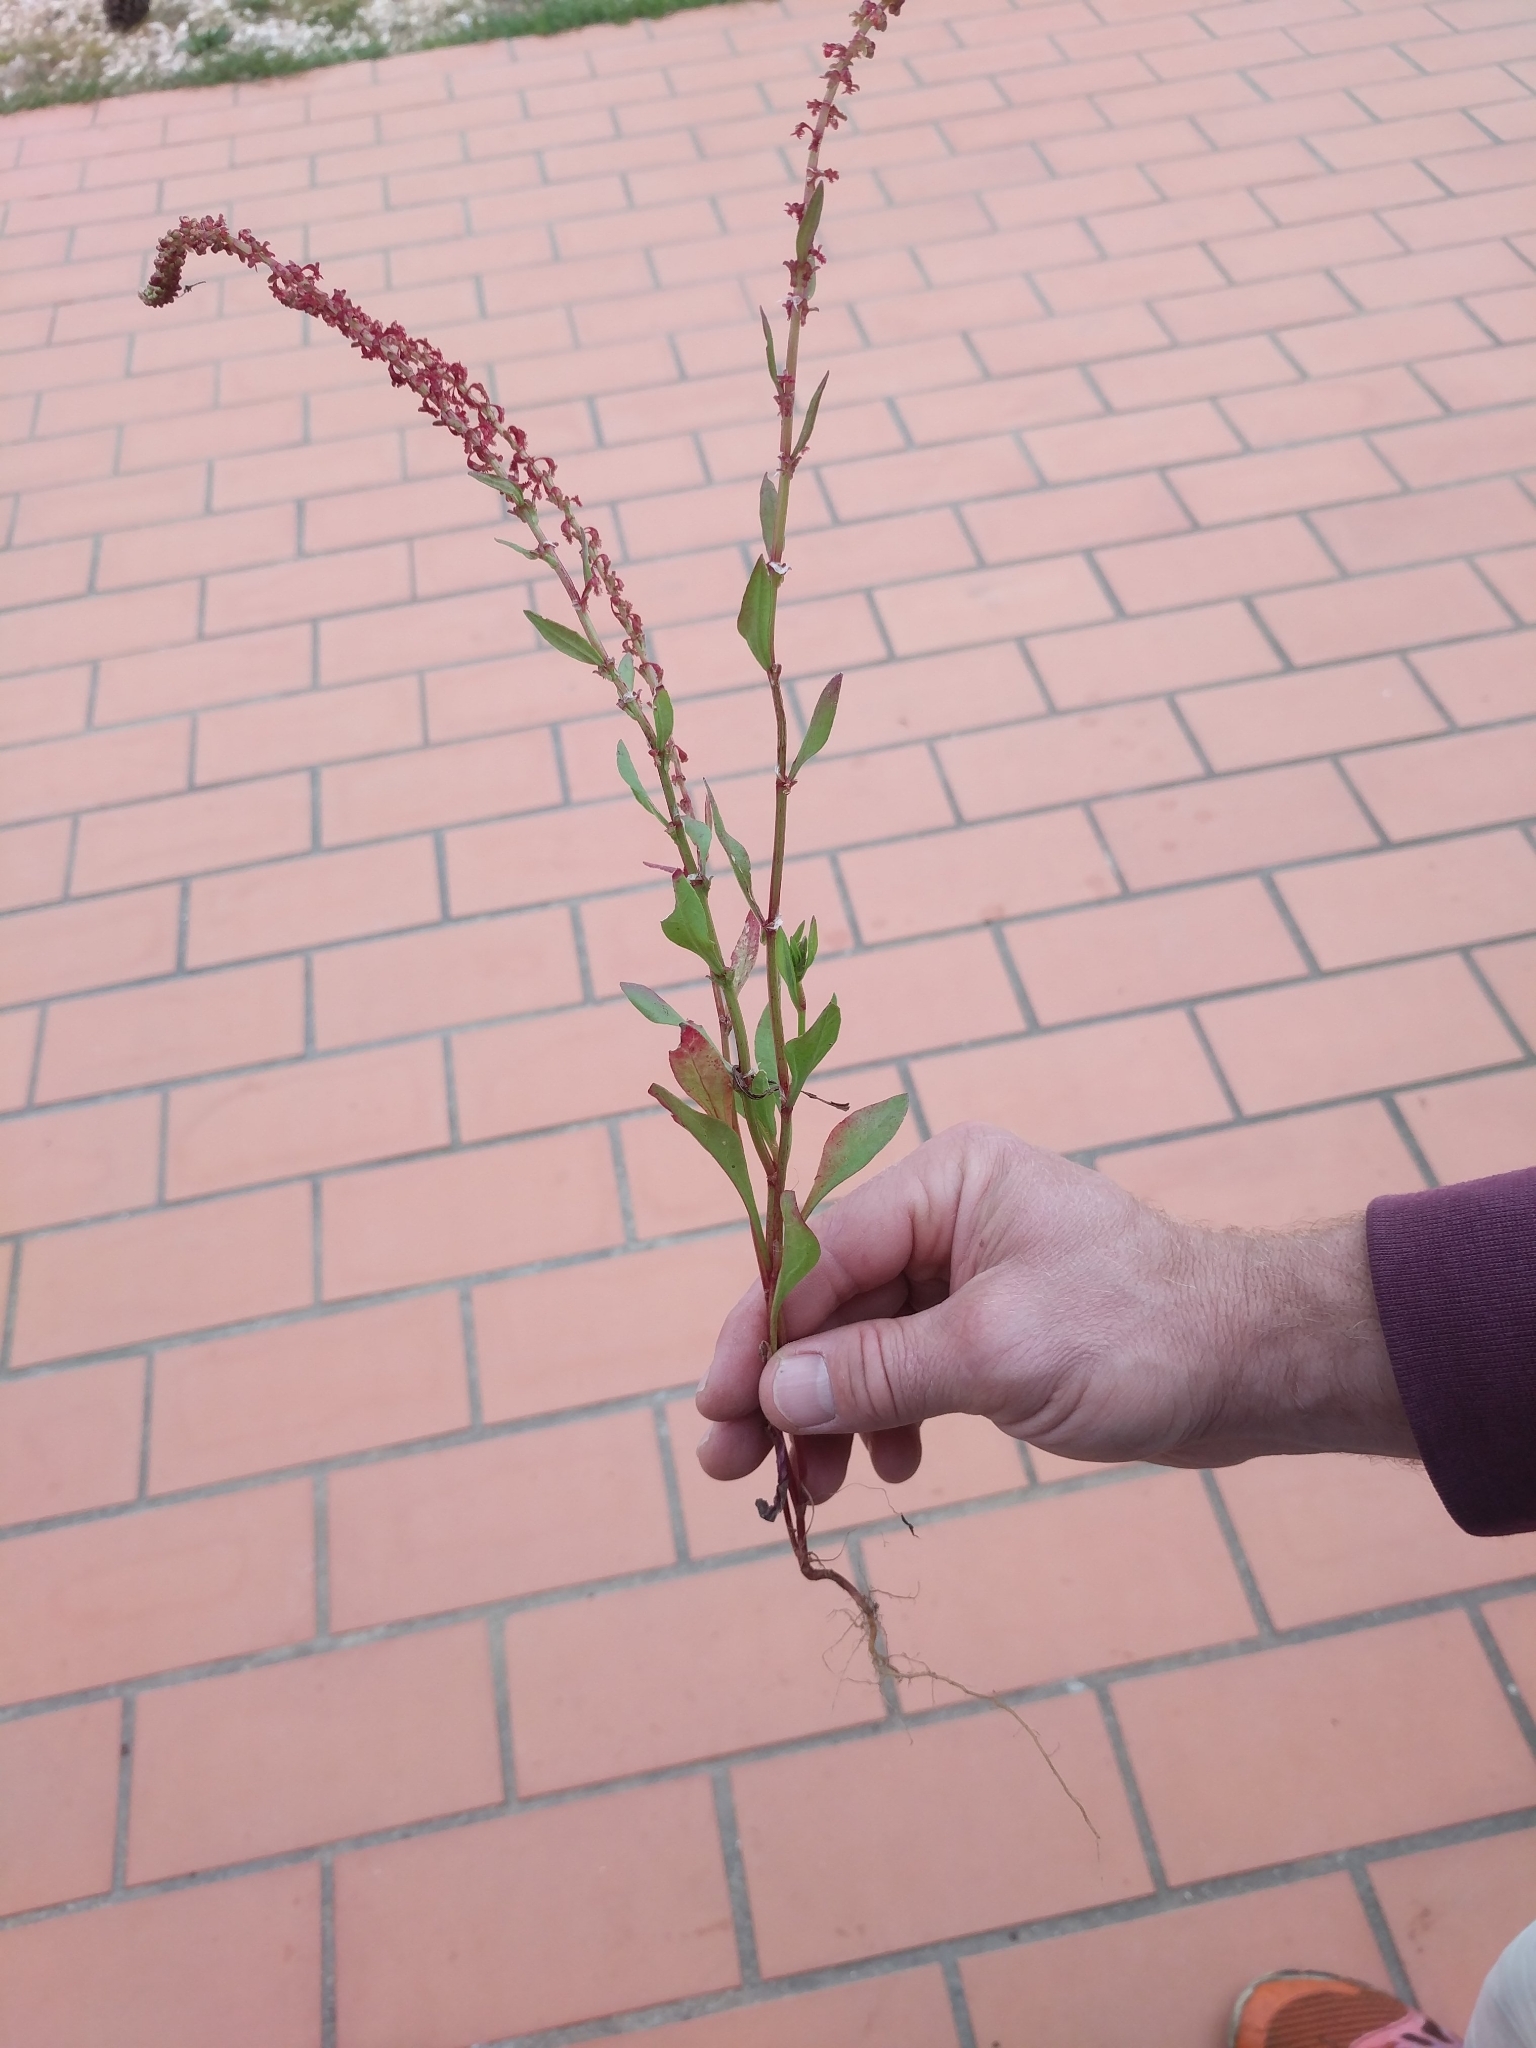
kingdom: Plantae
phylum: Tracheophyta
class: Magnoliopsida
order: Caryophyllales
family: Polygonaceae
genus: Rumex
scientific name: Rumex bucephalophorus
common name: Red dock
